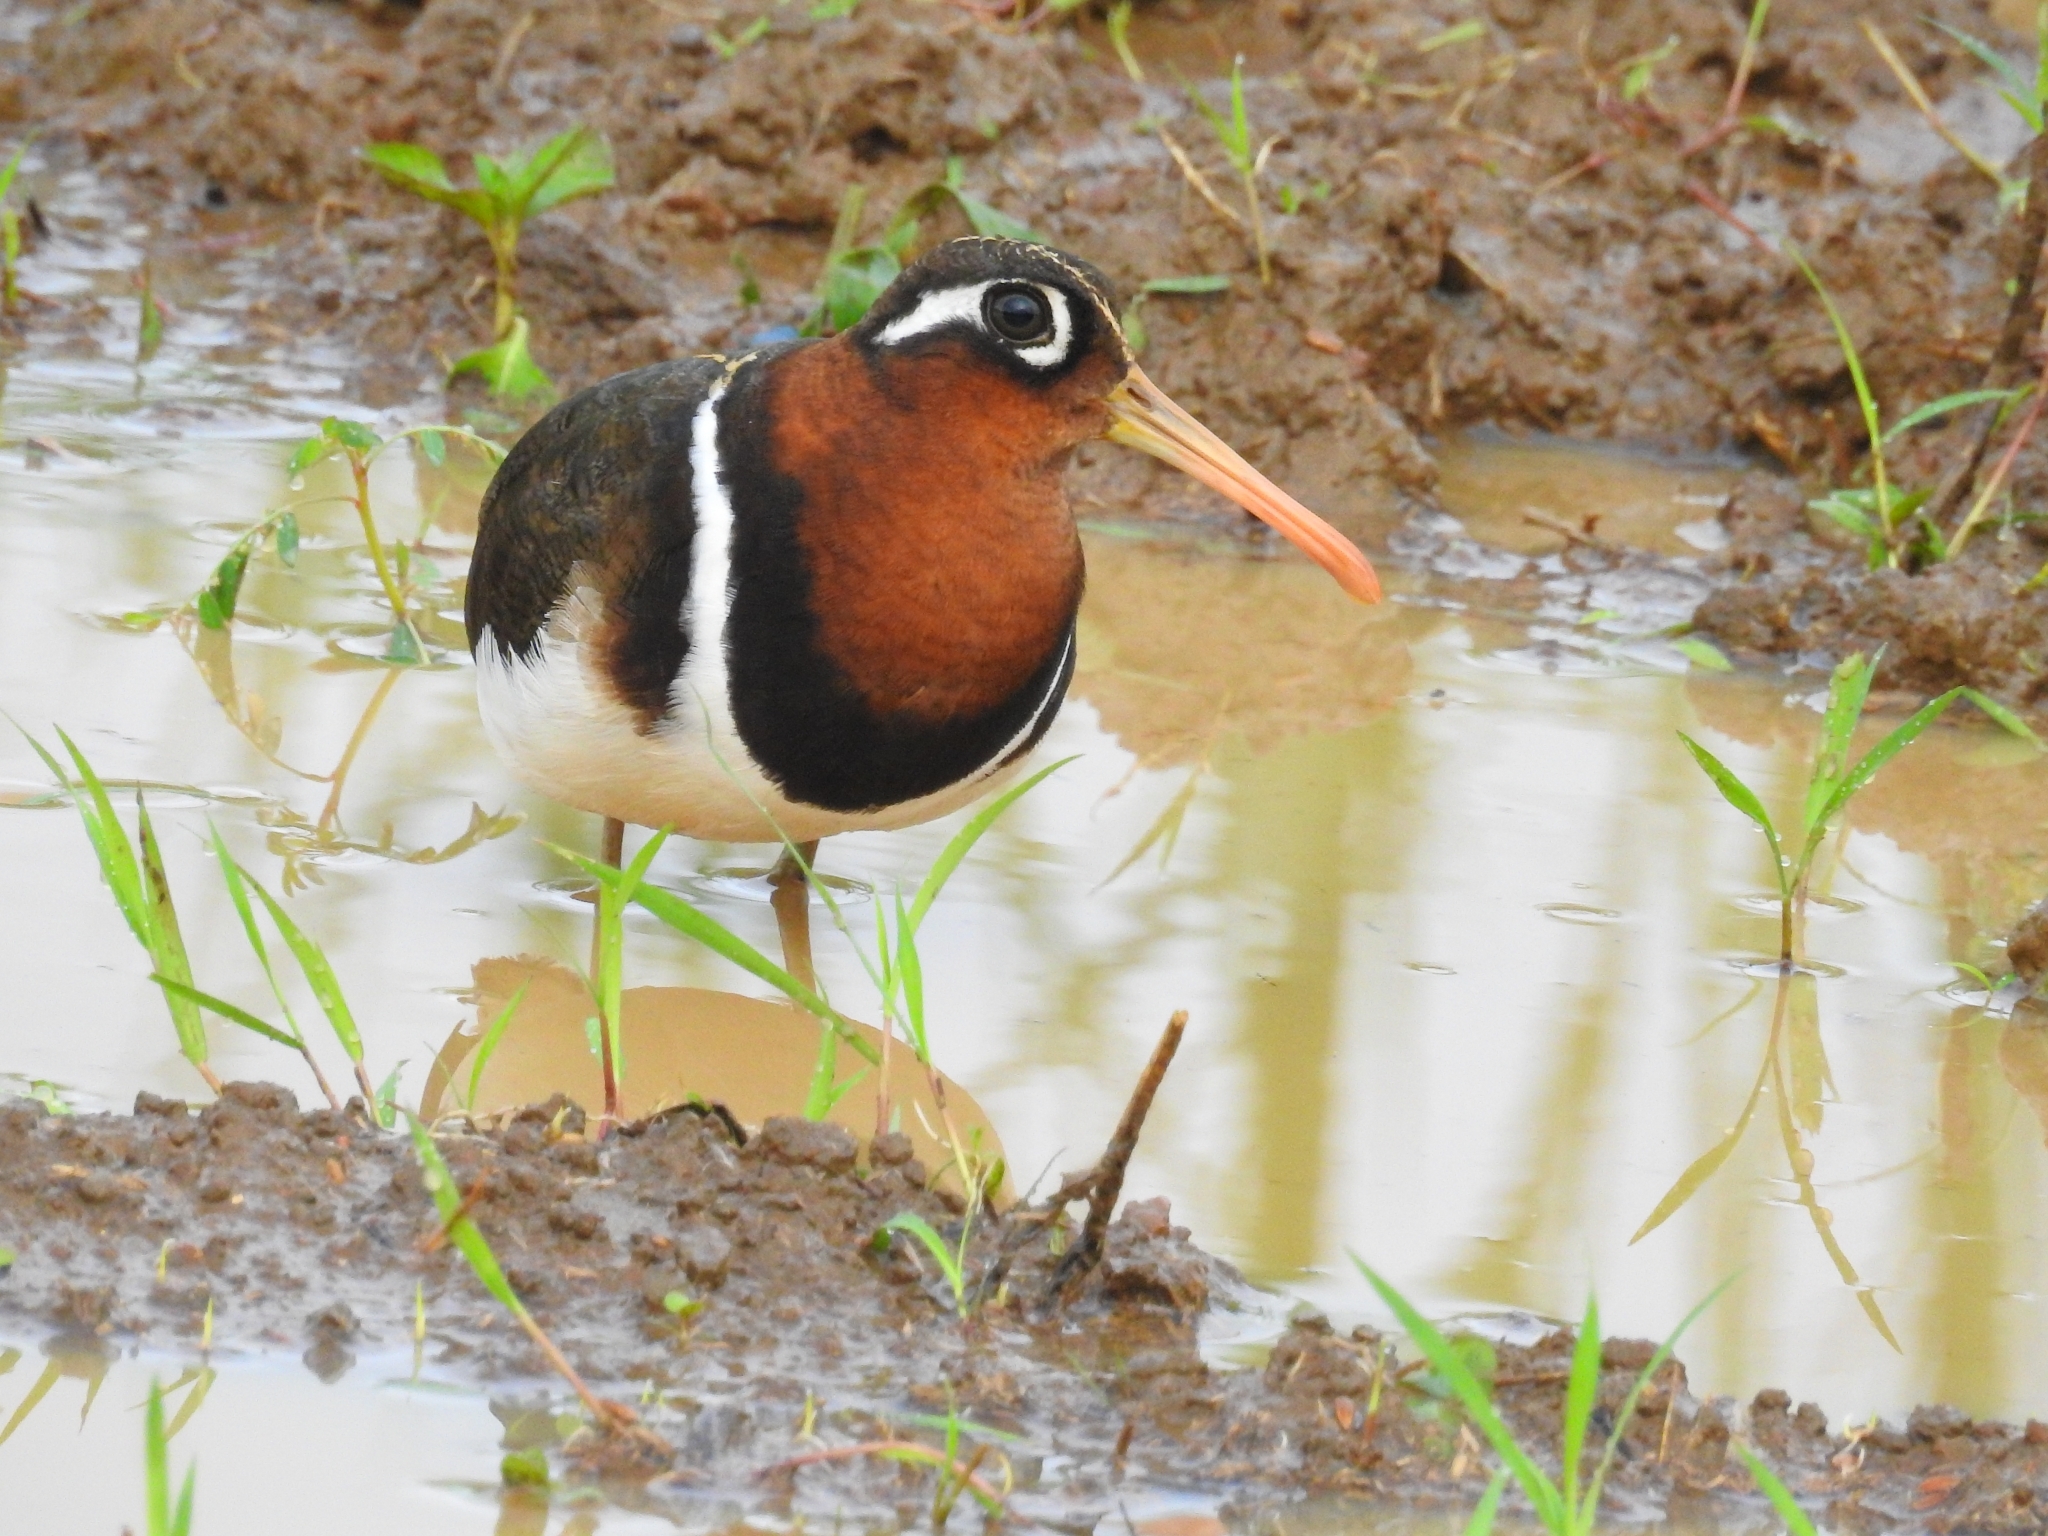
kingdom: Animalia
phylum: Chordata
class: Aves
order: Charadriiformes
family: Rostratulidae
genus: Rostratula
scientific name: Rostratula benghalensis
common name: Greater painted-snipe
